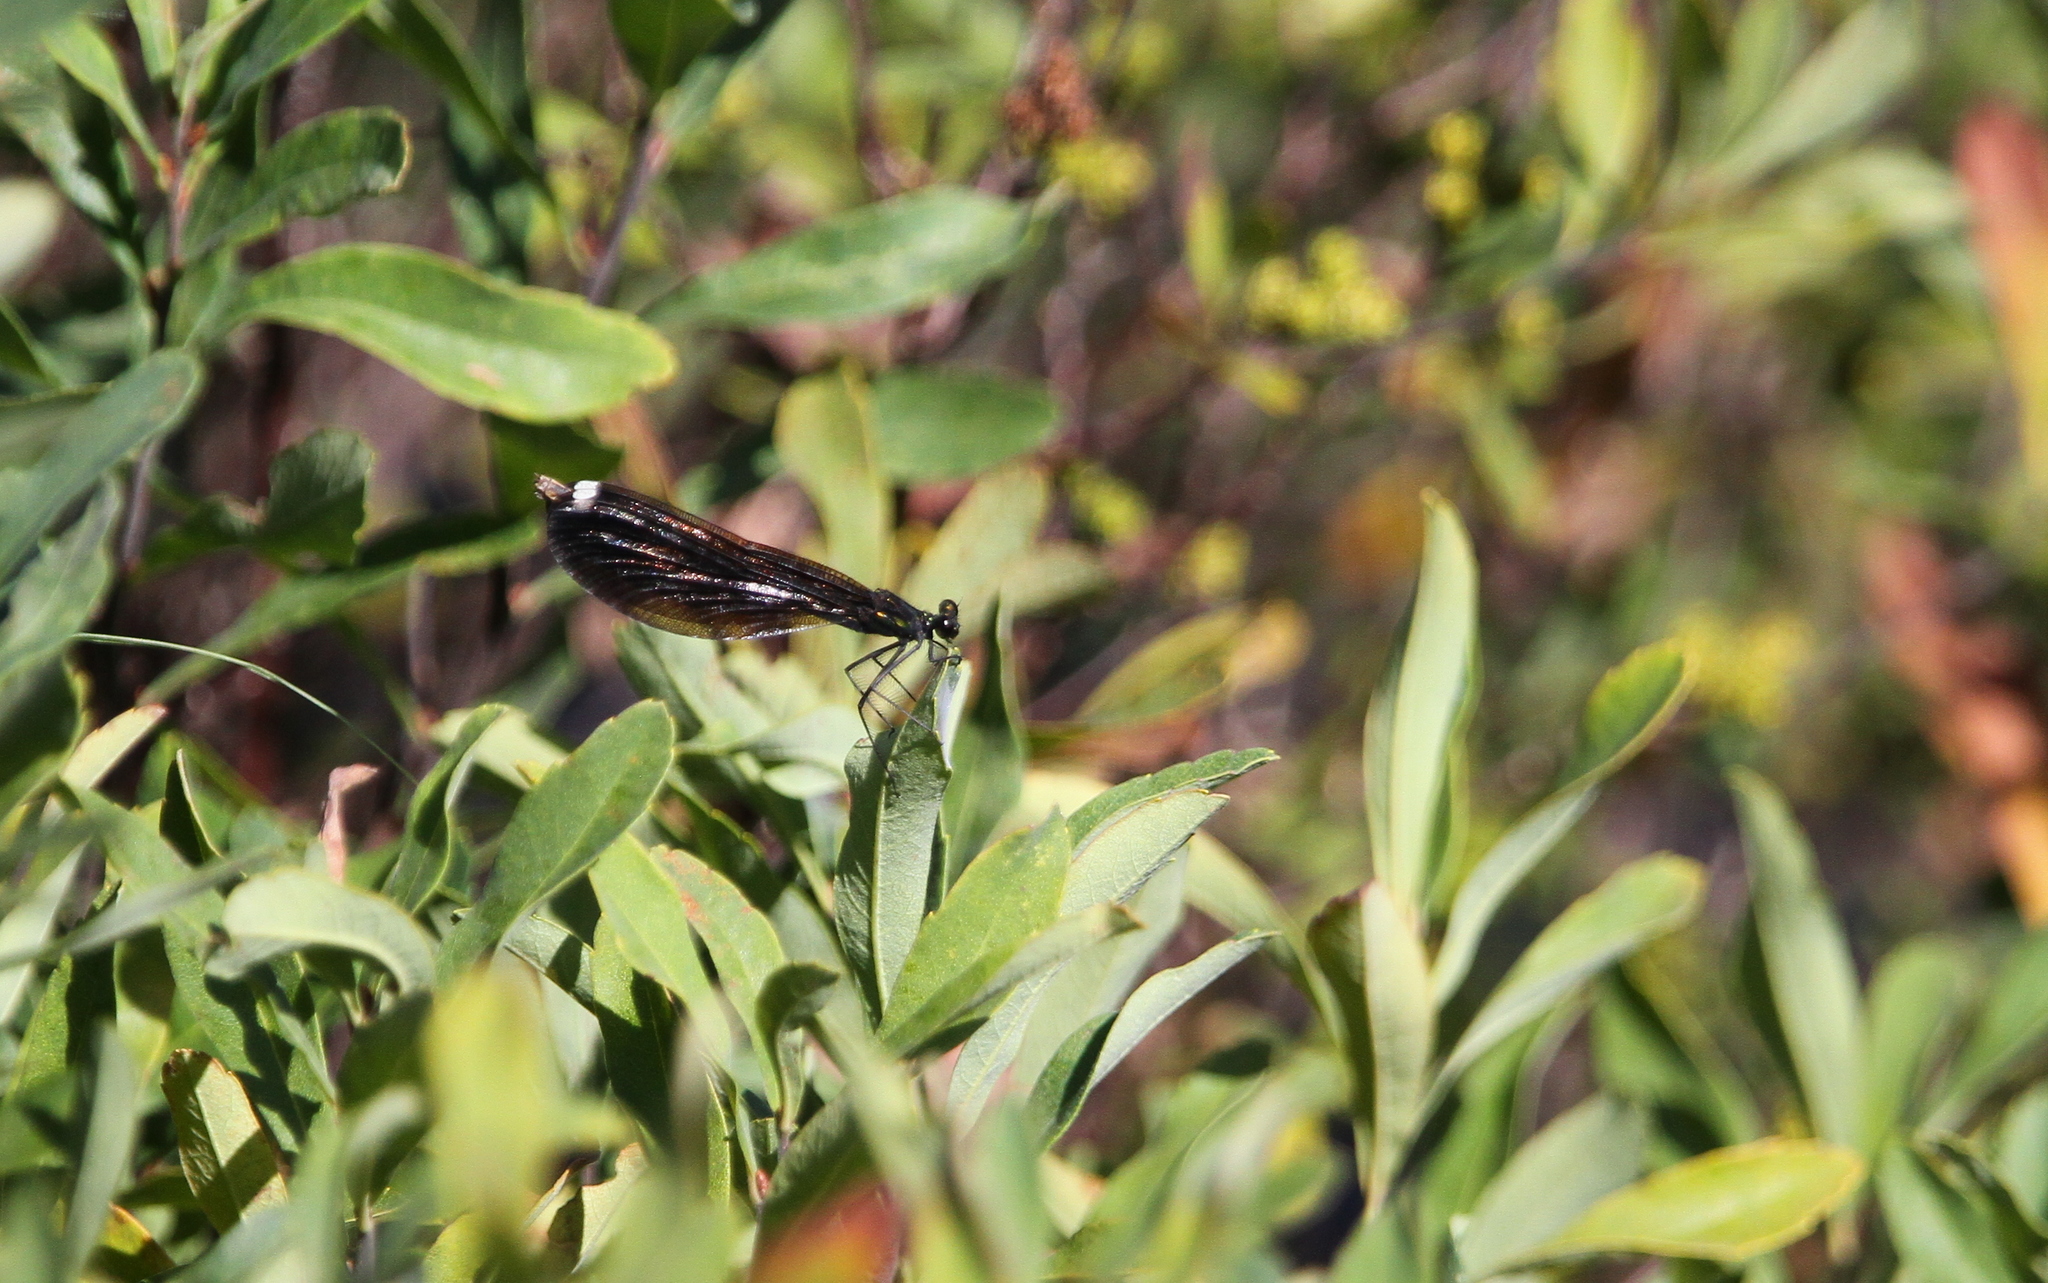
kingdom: Animalia
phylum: Arthropoda
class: Insecta
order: Odonata
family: Calopterygidae
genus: Calopteryx
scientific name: Calopteryx maculata
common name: Ebony jewelwing
